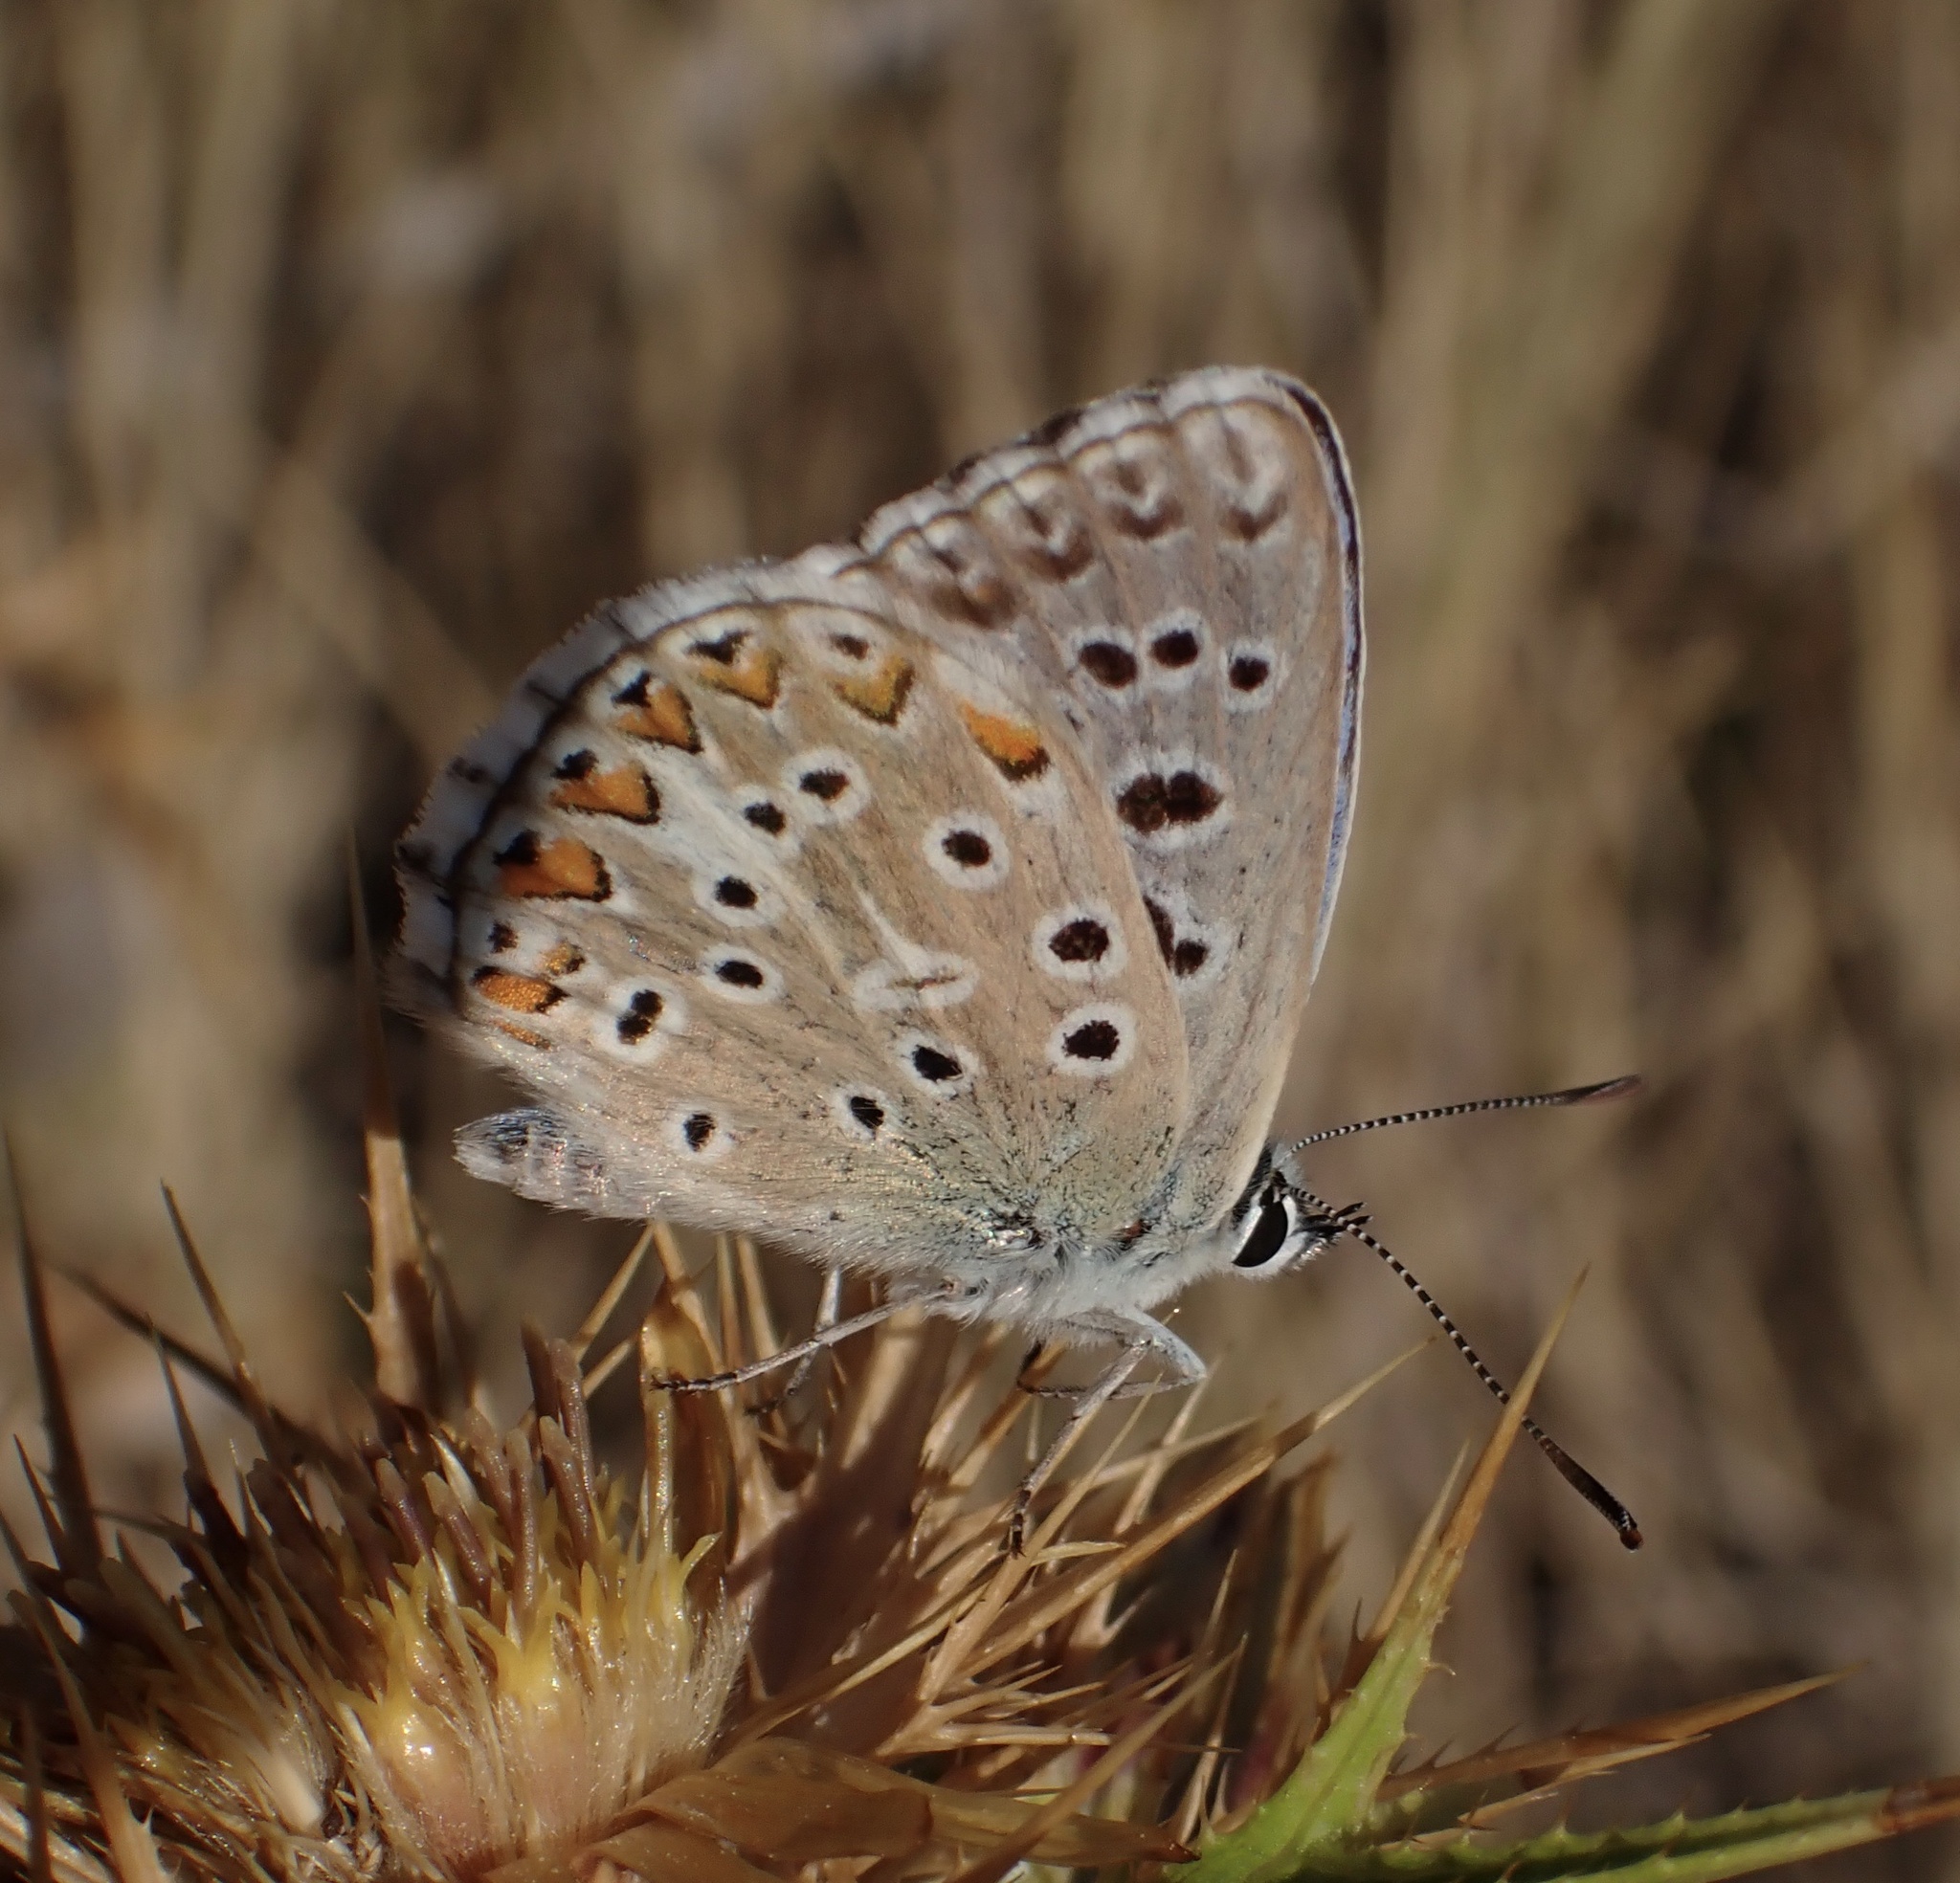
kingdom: Animalia
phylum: Arthropoda
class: Insecta
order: Lepidoptera
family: Lycaenidae
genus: Lysandra
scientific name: Lysandra bellargus
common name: Adonis blue
